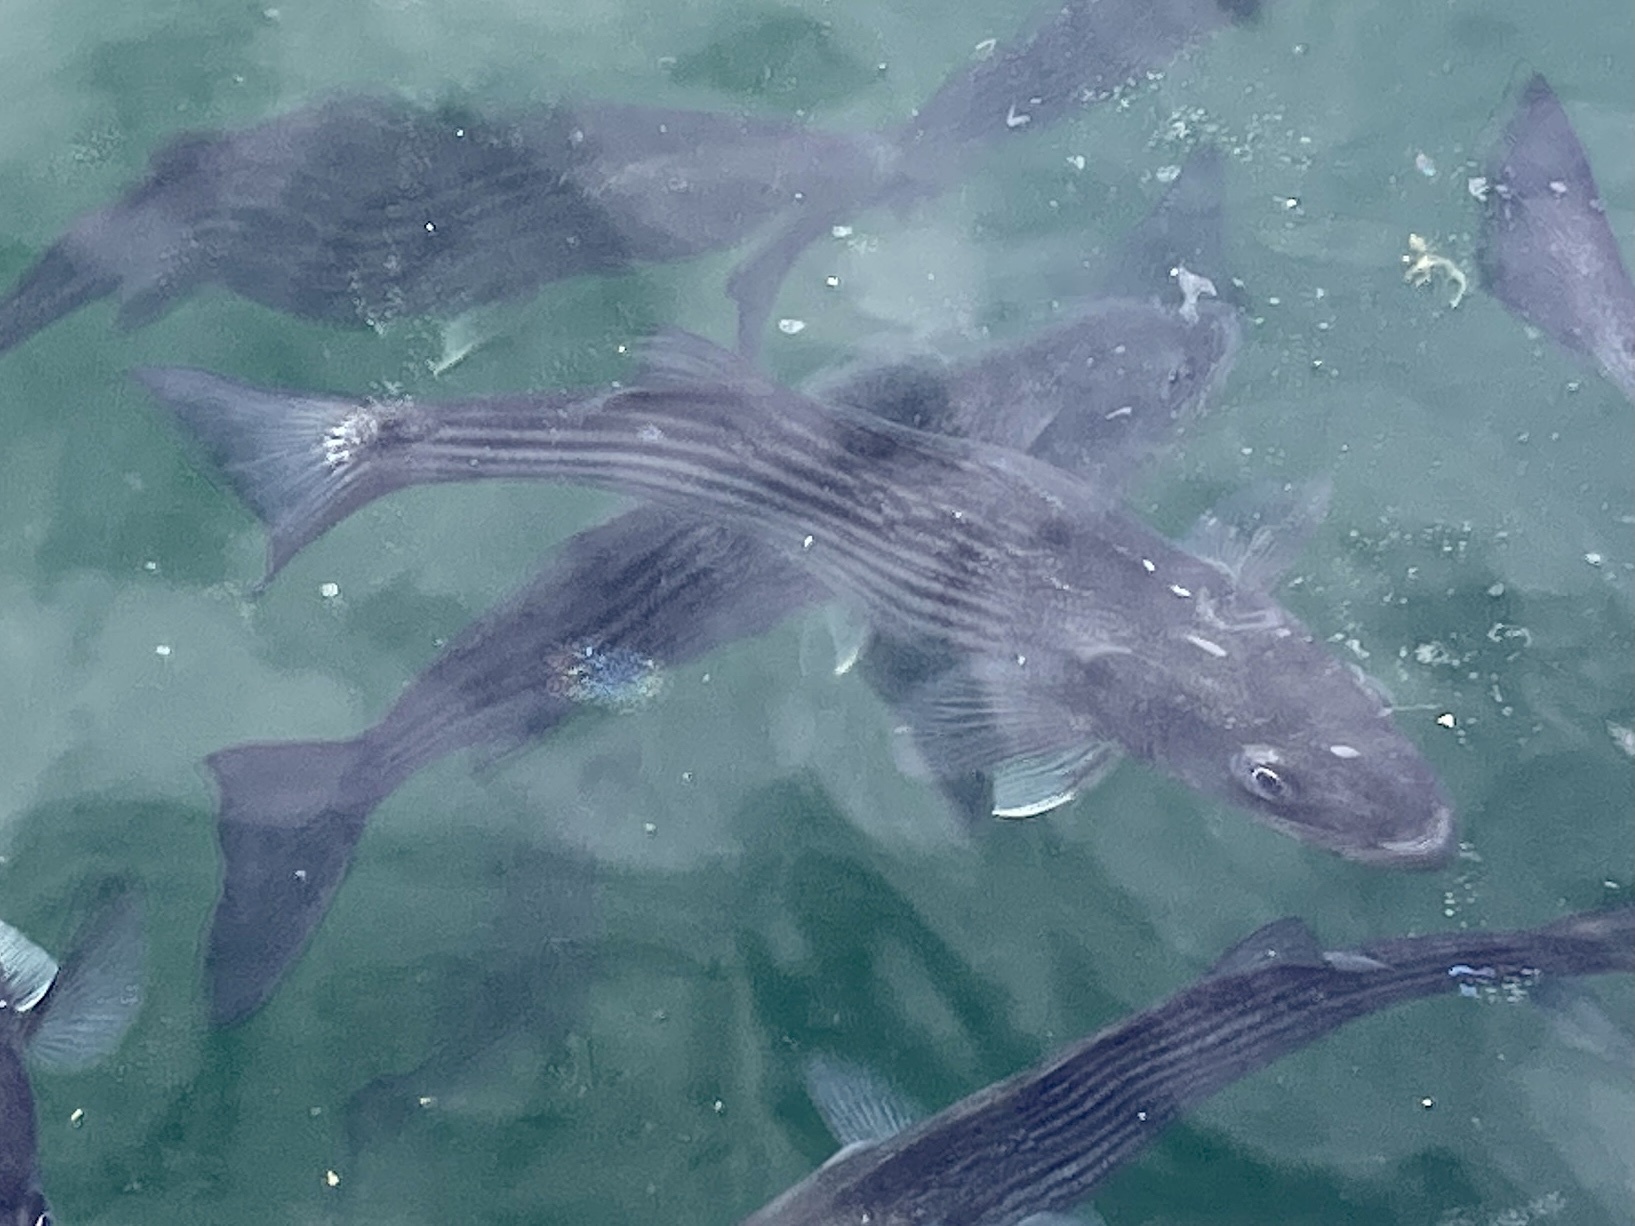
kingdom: Animalia
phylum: Chordata
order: Perciformes
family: Moronidae
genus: Morone
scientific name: Morone saxatilis
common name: Striped bass
